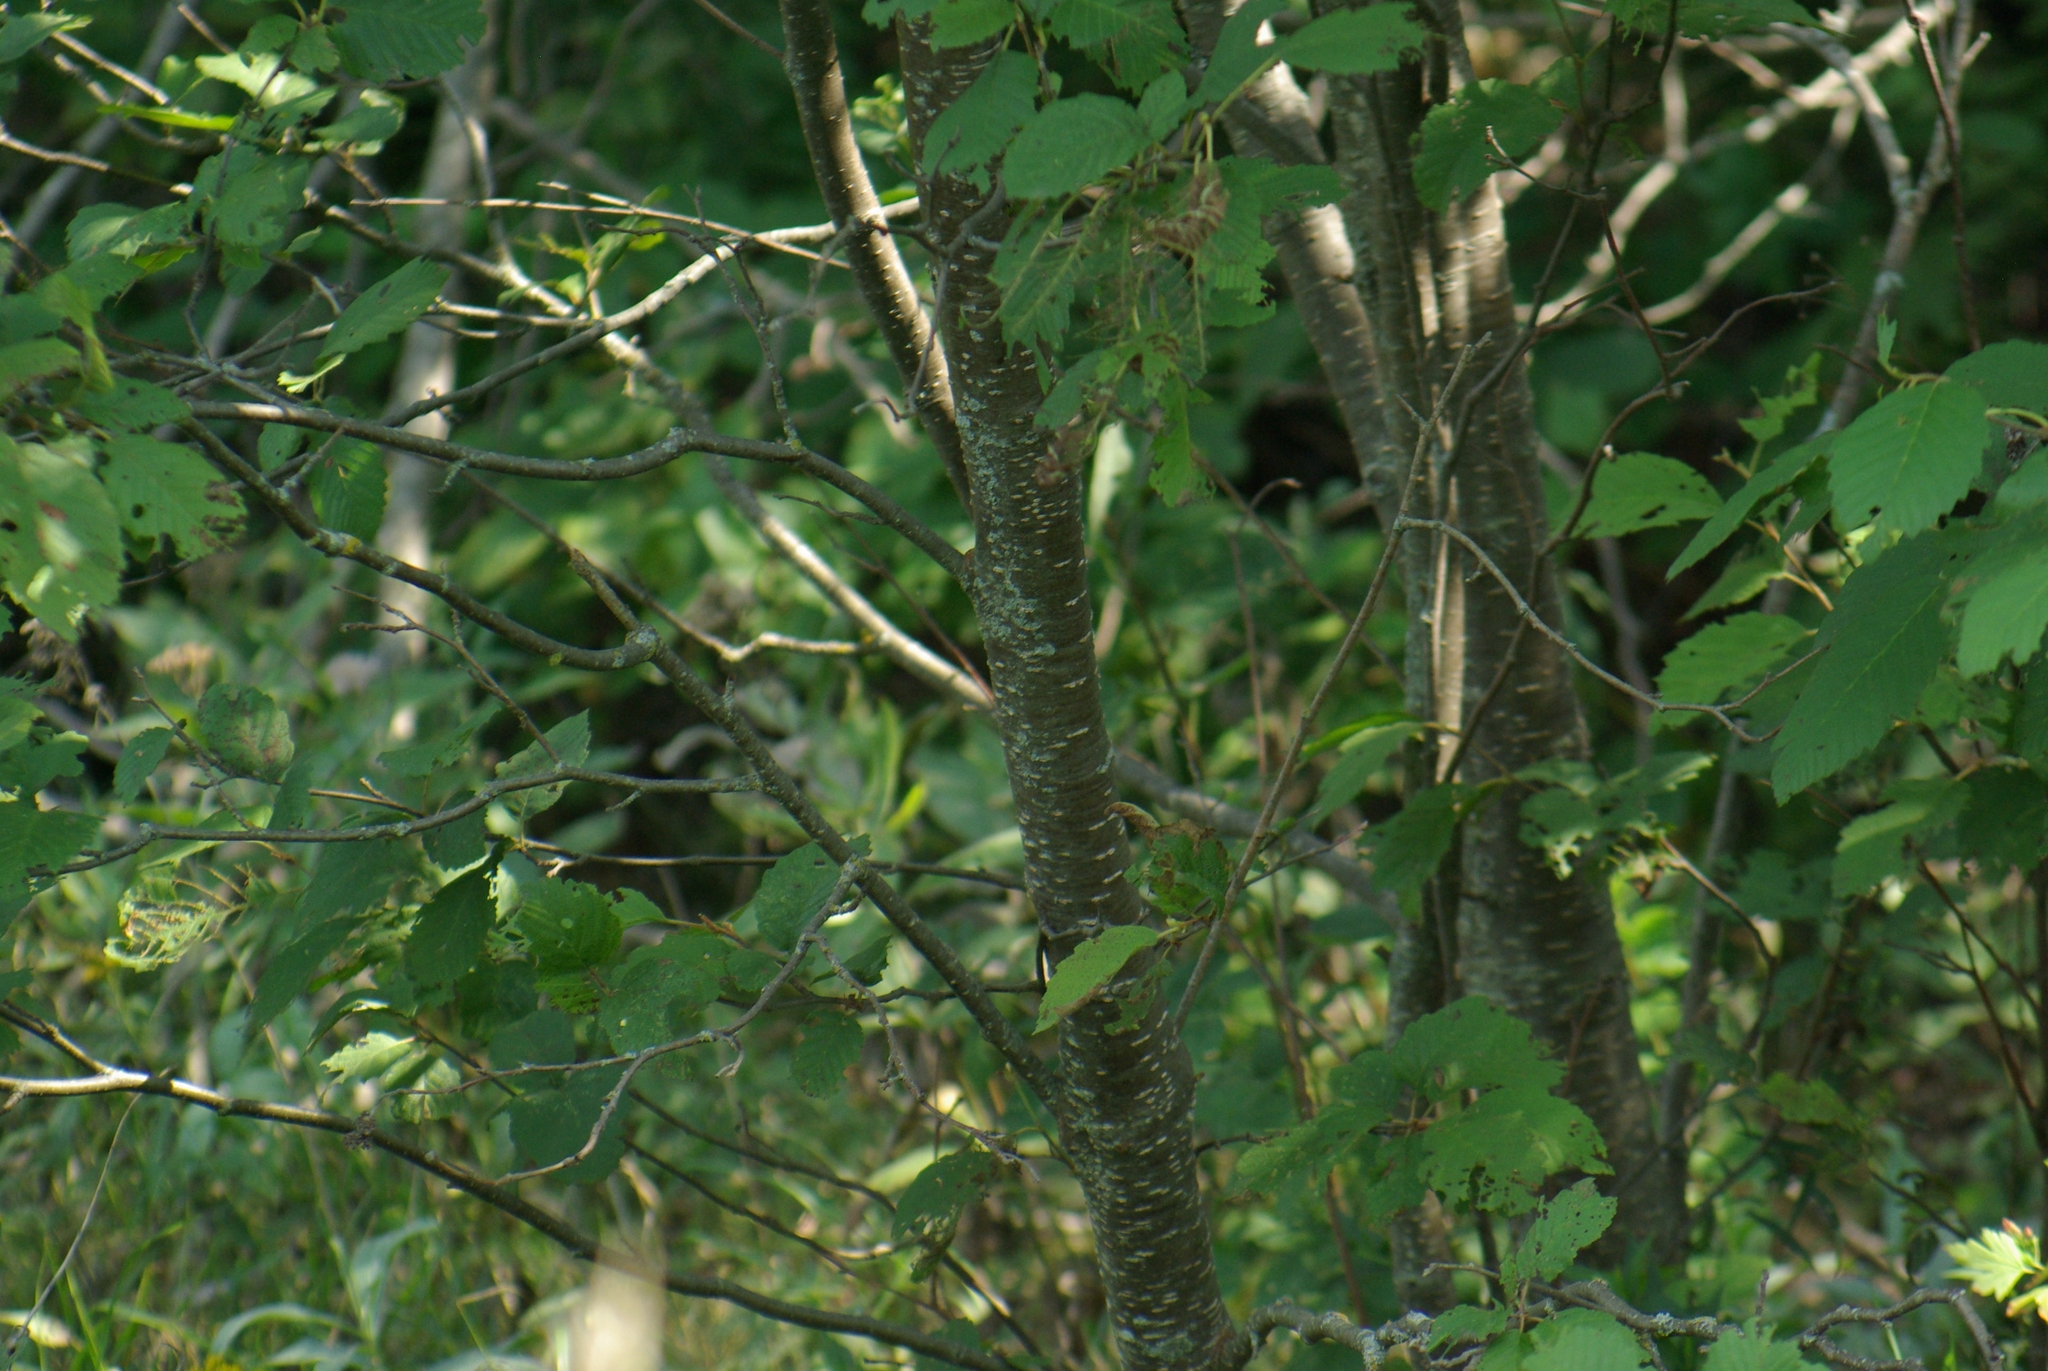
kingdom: Plantae
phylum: Tracheophyta
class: Magnoliopsida
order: Fagales
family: Betulaceae
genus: Alnus
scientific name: Alnus incana
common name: Grey alder
